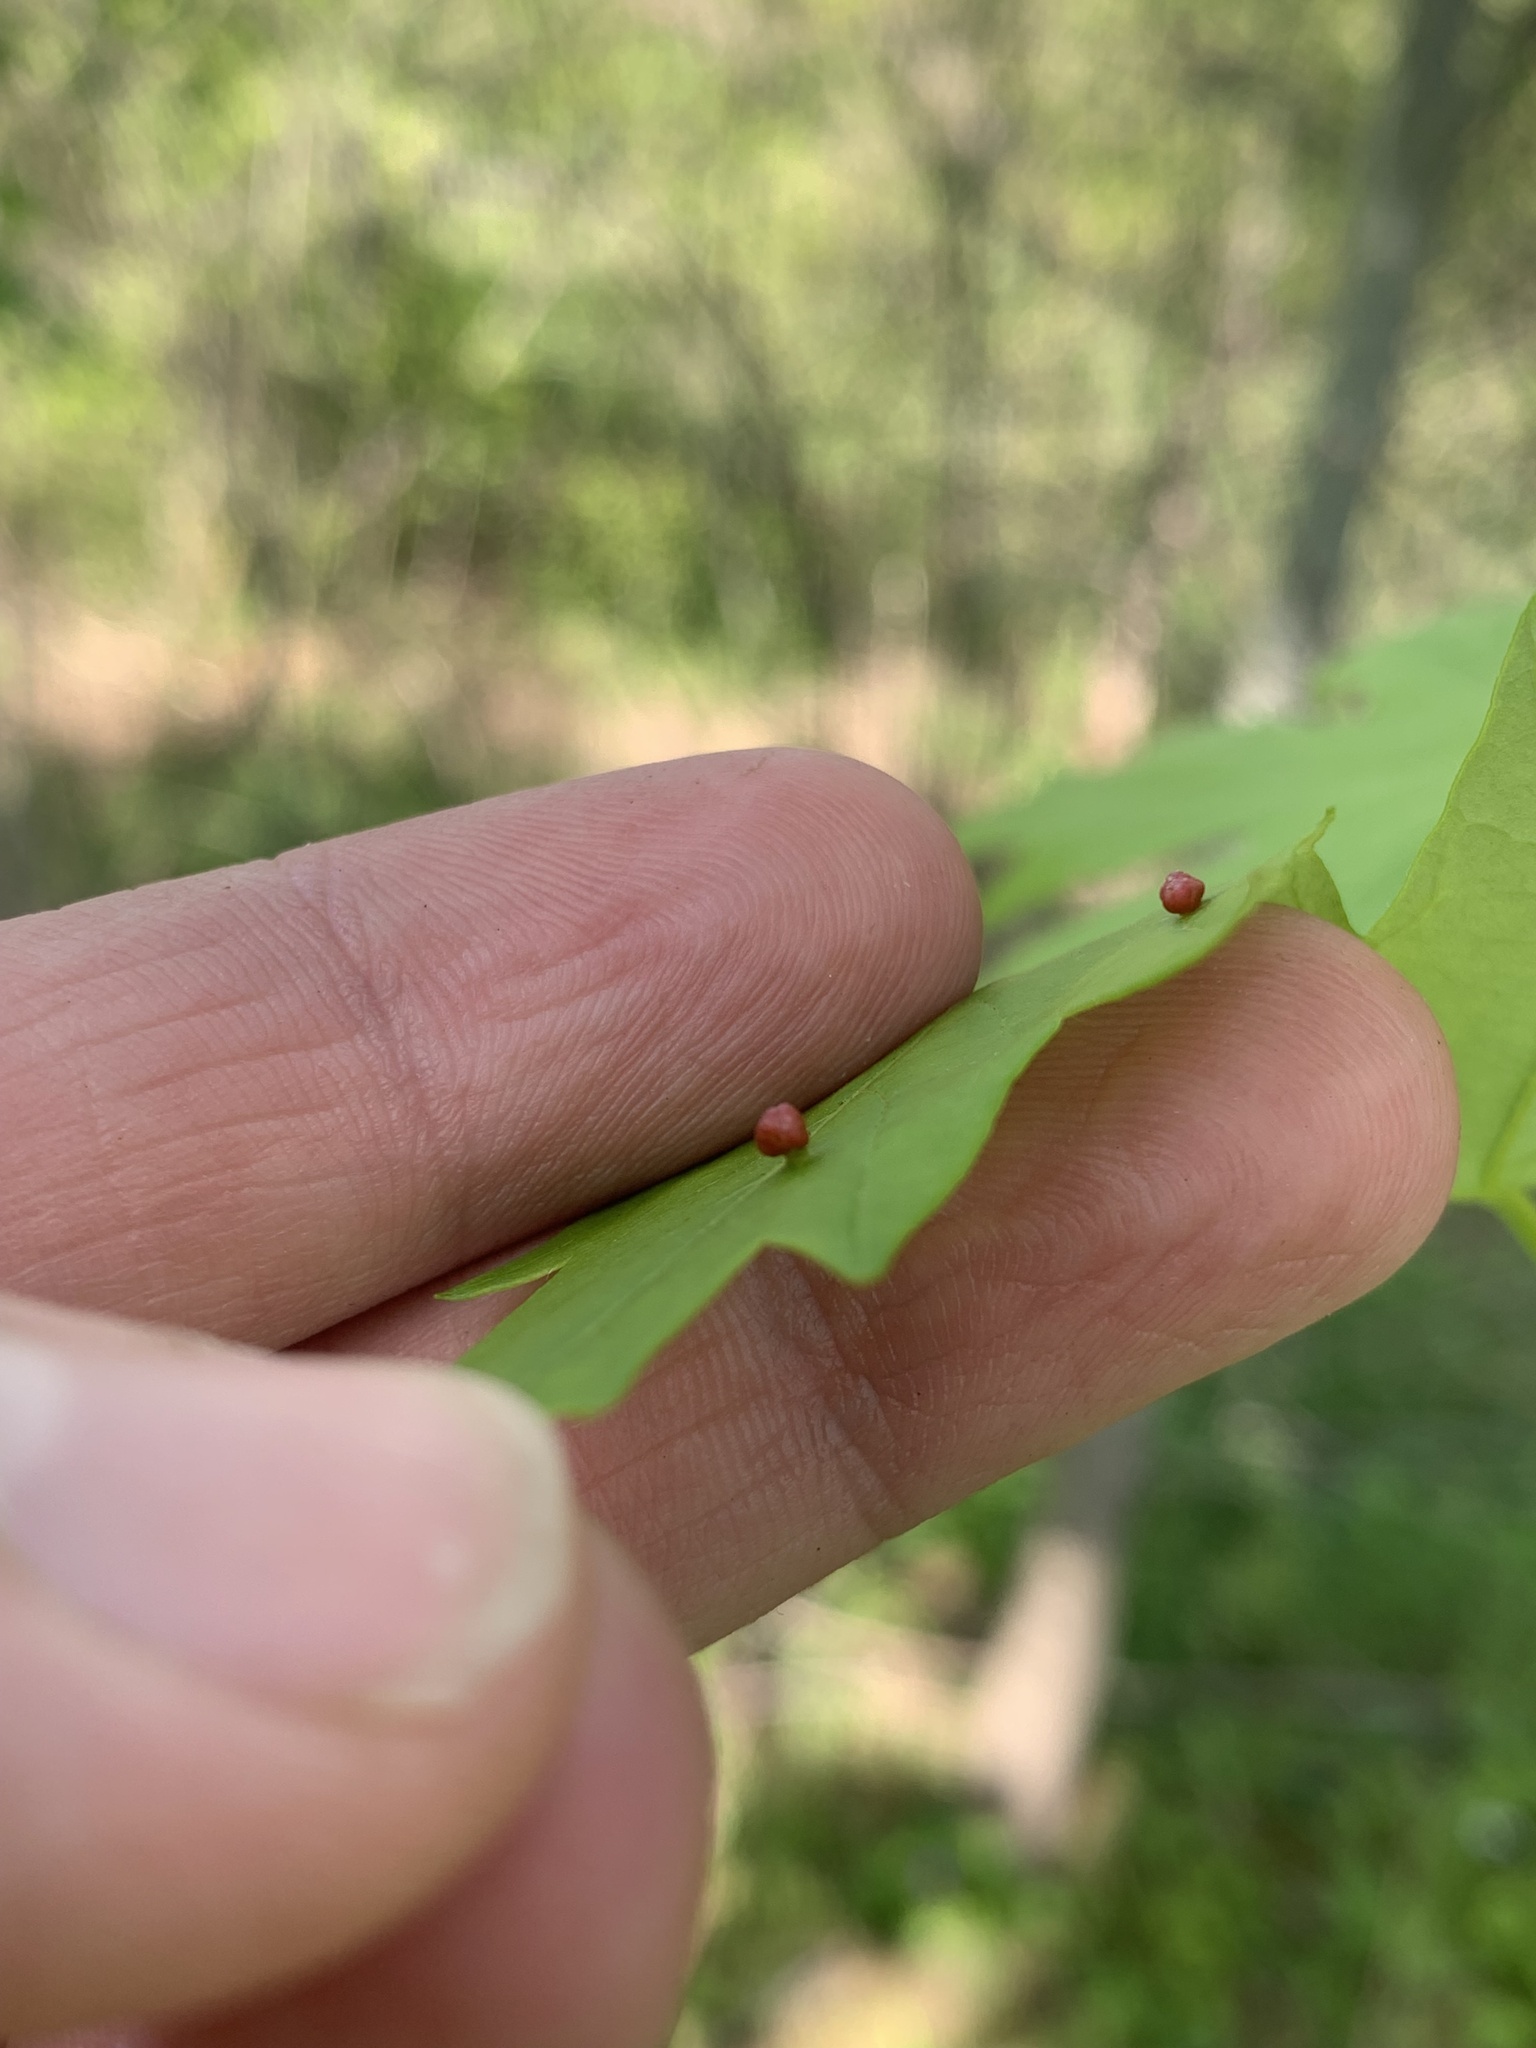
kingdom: Animalia
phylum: Arthropoda
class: Arachnida
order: Trombidiformes
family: Eriophyidae
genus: Vasates
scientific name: Vasates quadripedes
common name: Maple bladder gall mite
